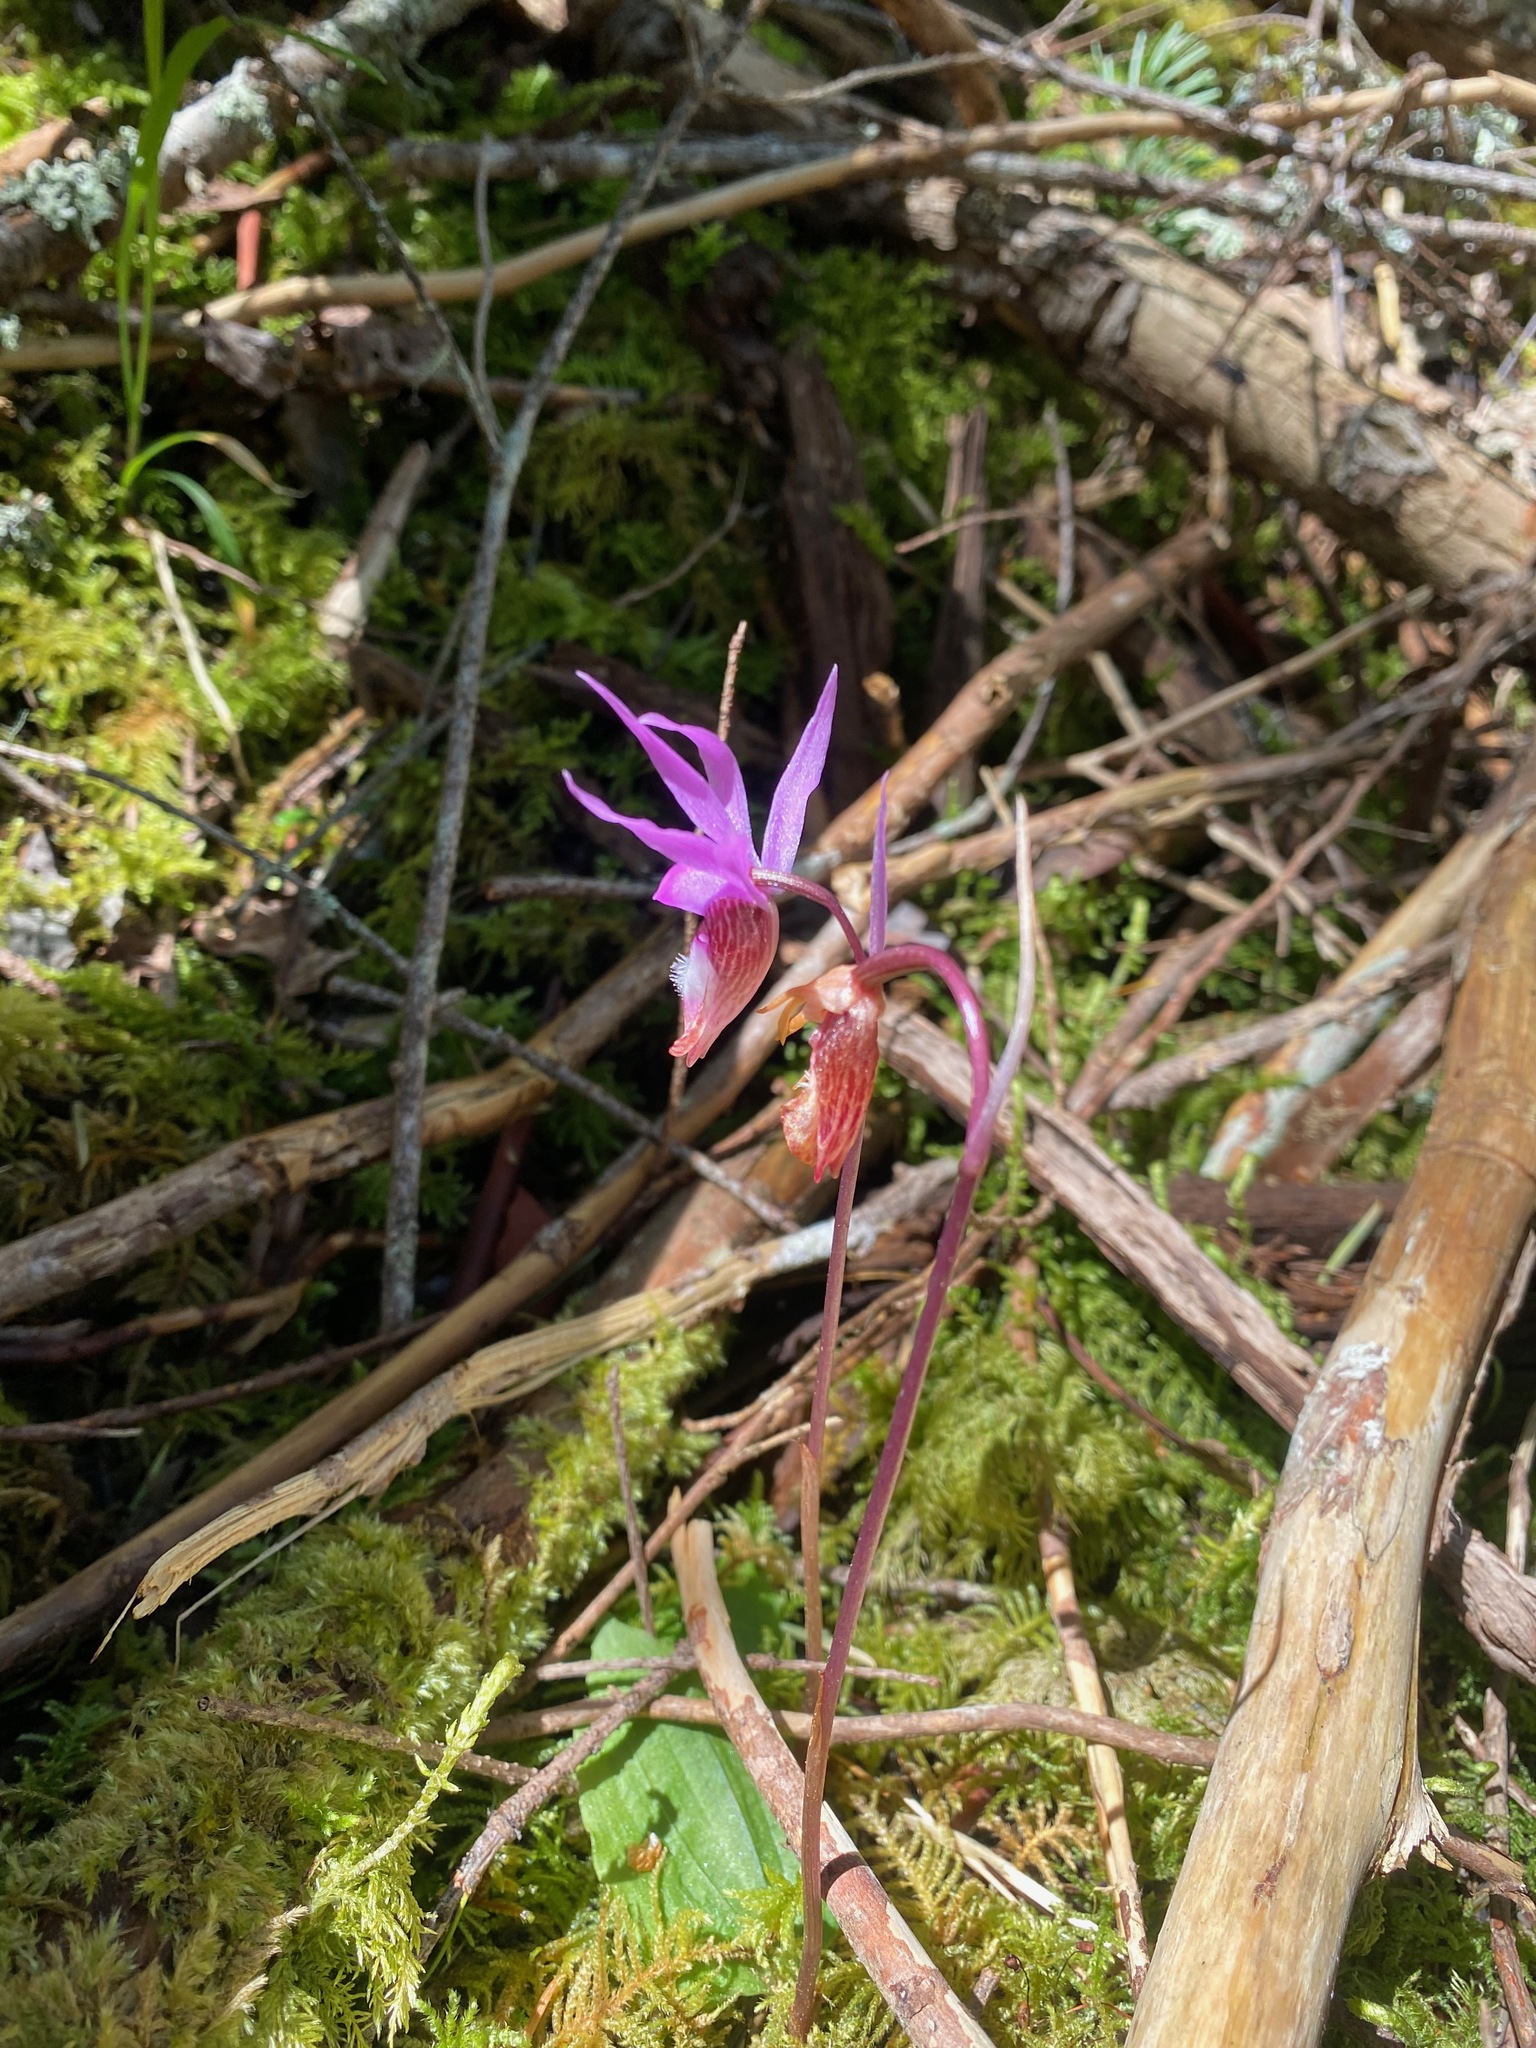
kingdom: Plantae
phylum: Tracheophyta
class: Liliopsida
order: Asparagales
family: Orchidaceae
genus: Calypso
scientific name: Calypso bulbosa
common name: Calypso
